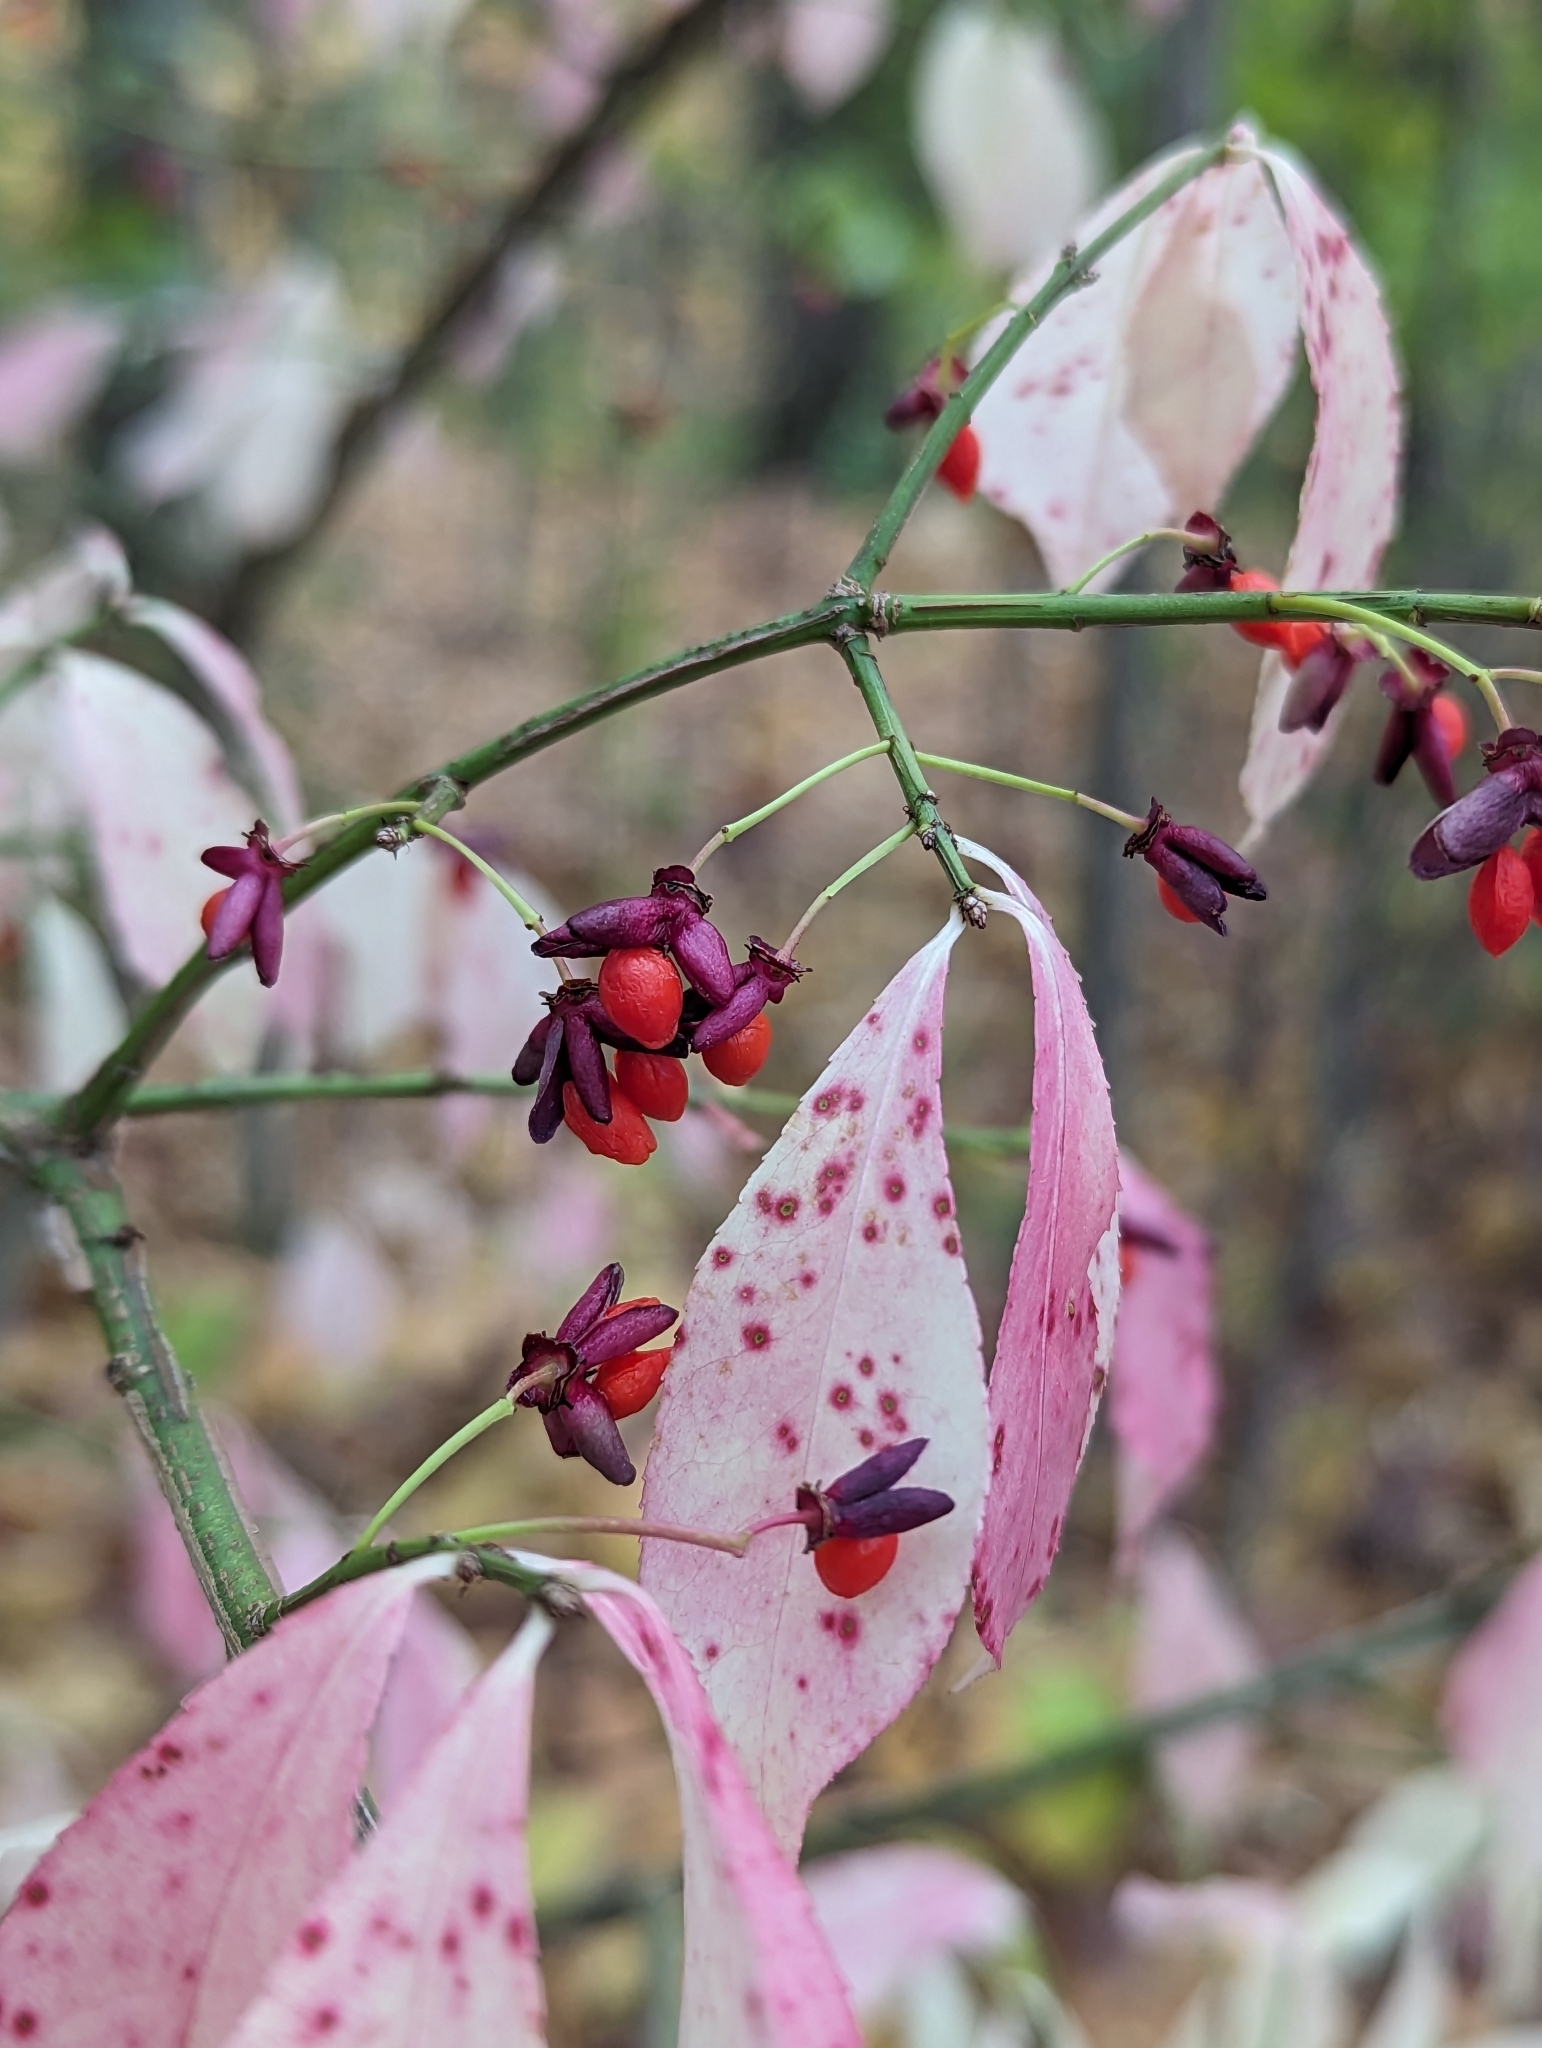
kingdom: Plantae
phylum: Tracheophyta
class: Magnoliopsida
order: Celastrales
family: Celastraceae
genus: Euonymus
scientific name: Euonymus alatus
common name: Winged euonymus
